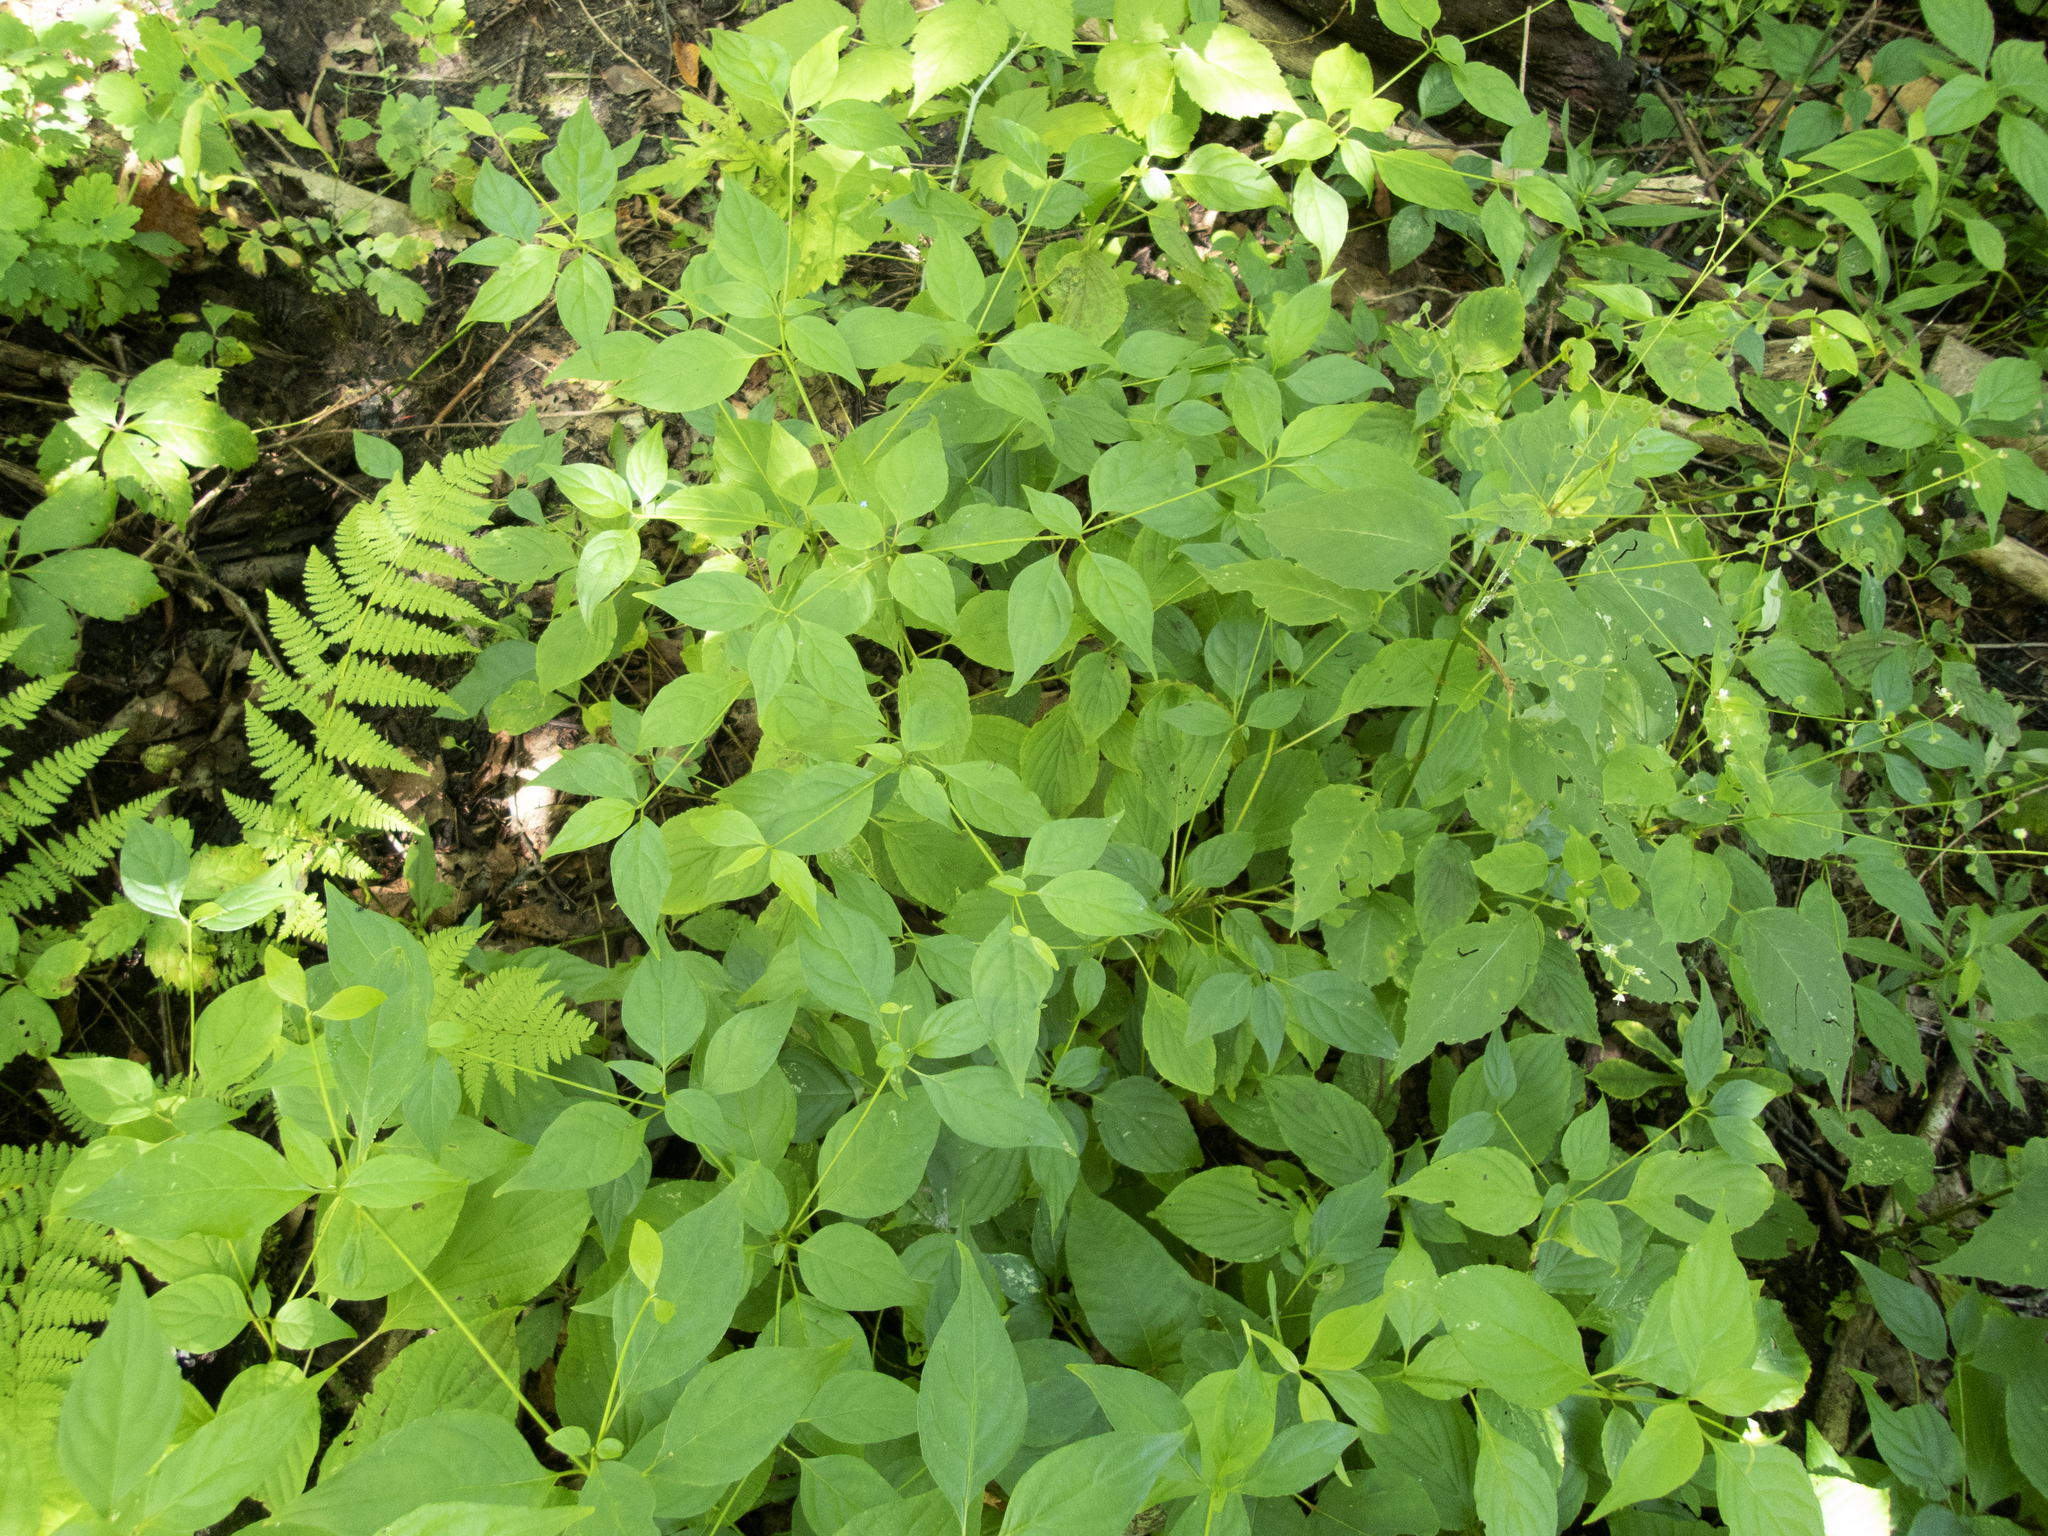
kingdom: Plantae
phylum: Tracheophyta
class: Magnoliopsida
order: Cornales
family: Cornaceae
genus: Cornus
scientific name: Cornus alternifolia
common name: Pagoda dogwood
